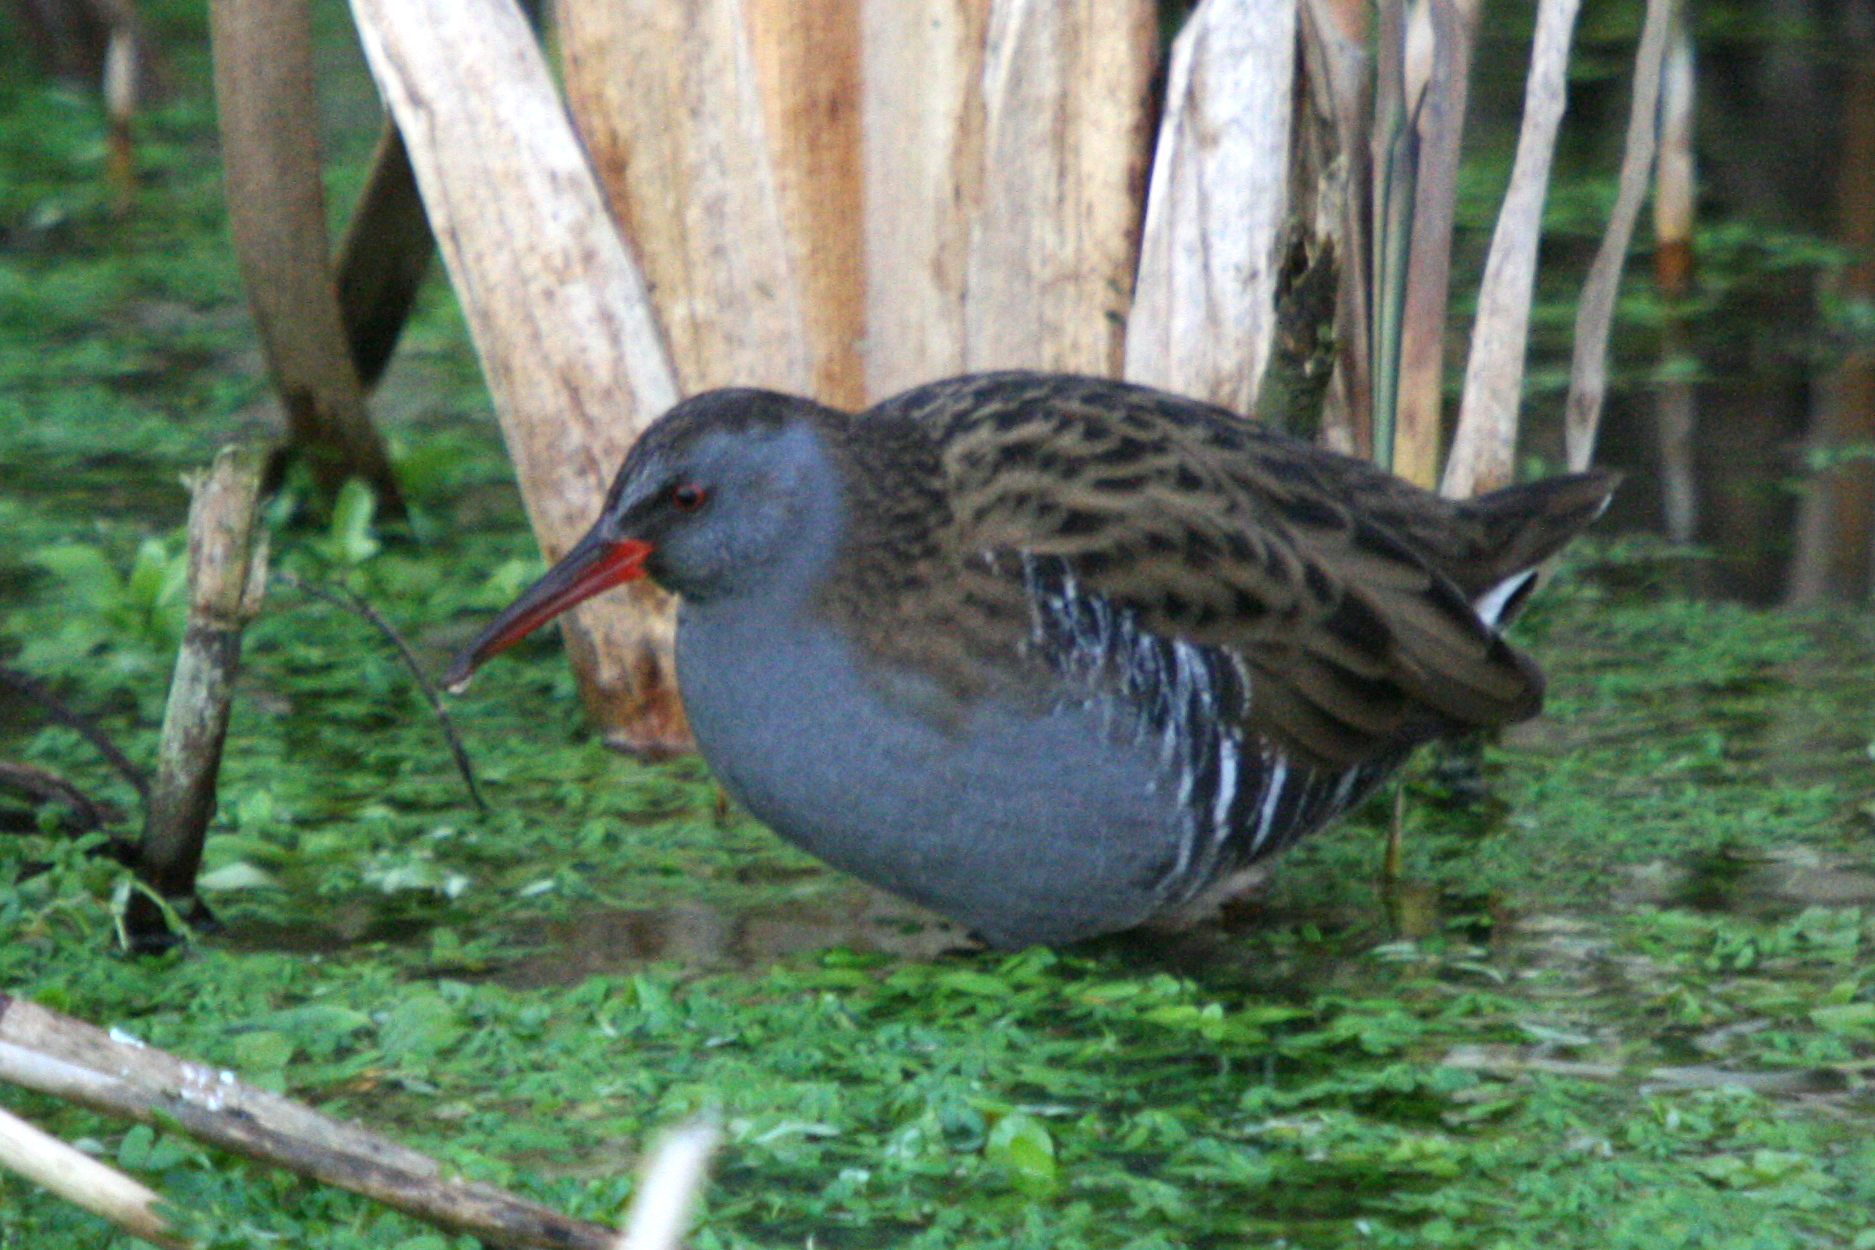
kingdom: Animalia
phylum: Chordata
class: Aves
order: Gruiformes
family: Rallidae
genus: Rallus
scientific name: Rallus aquaticus
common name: Water rail
